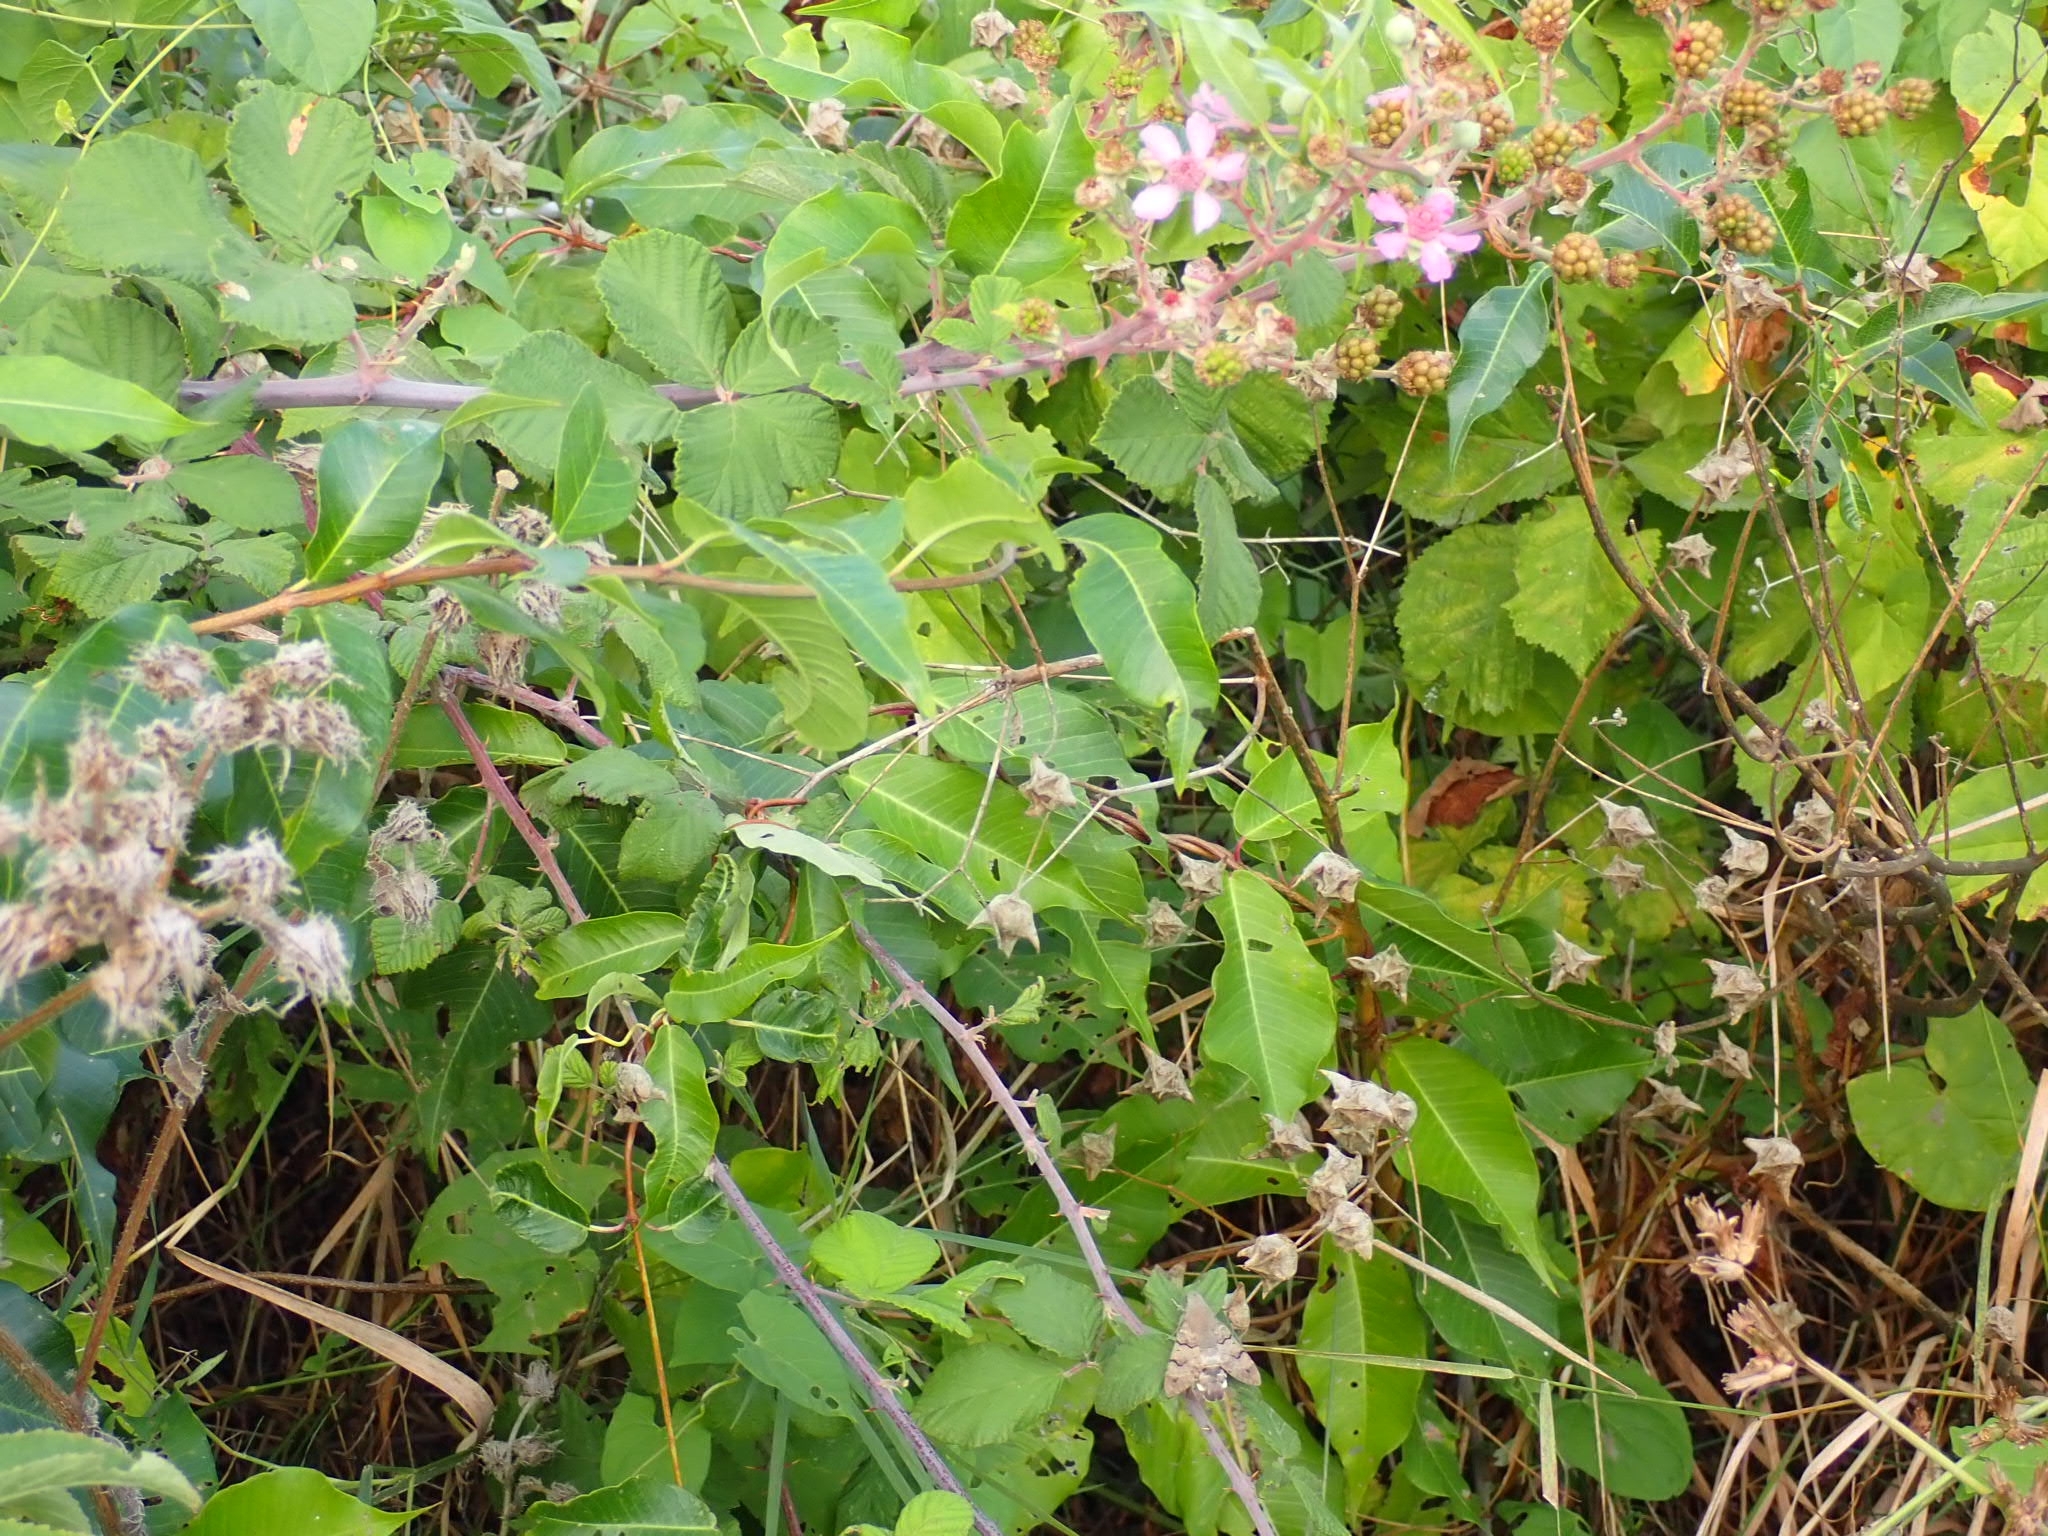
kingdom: Plantae
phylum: Tracheophyta
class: Magnoliopsida
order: Rosales
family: Rosaceae
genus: Rubus
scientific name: Rubus sanctus
